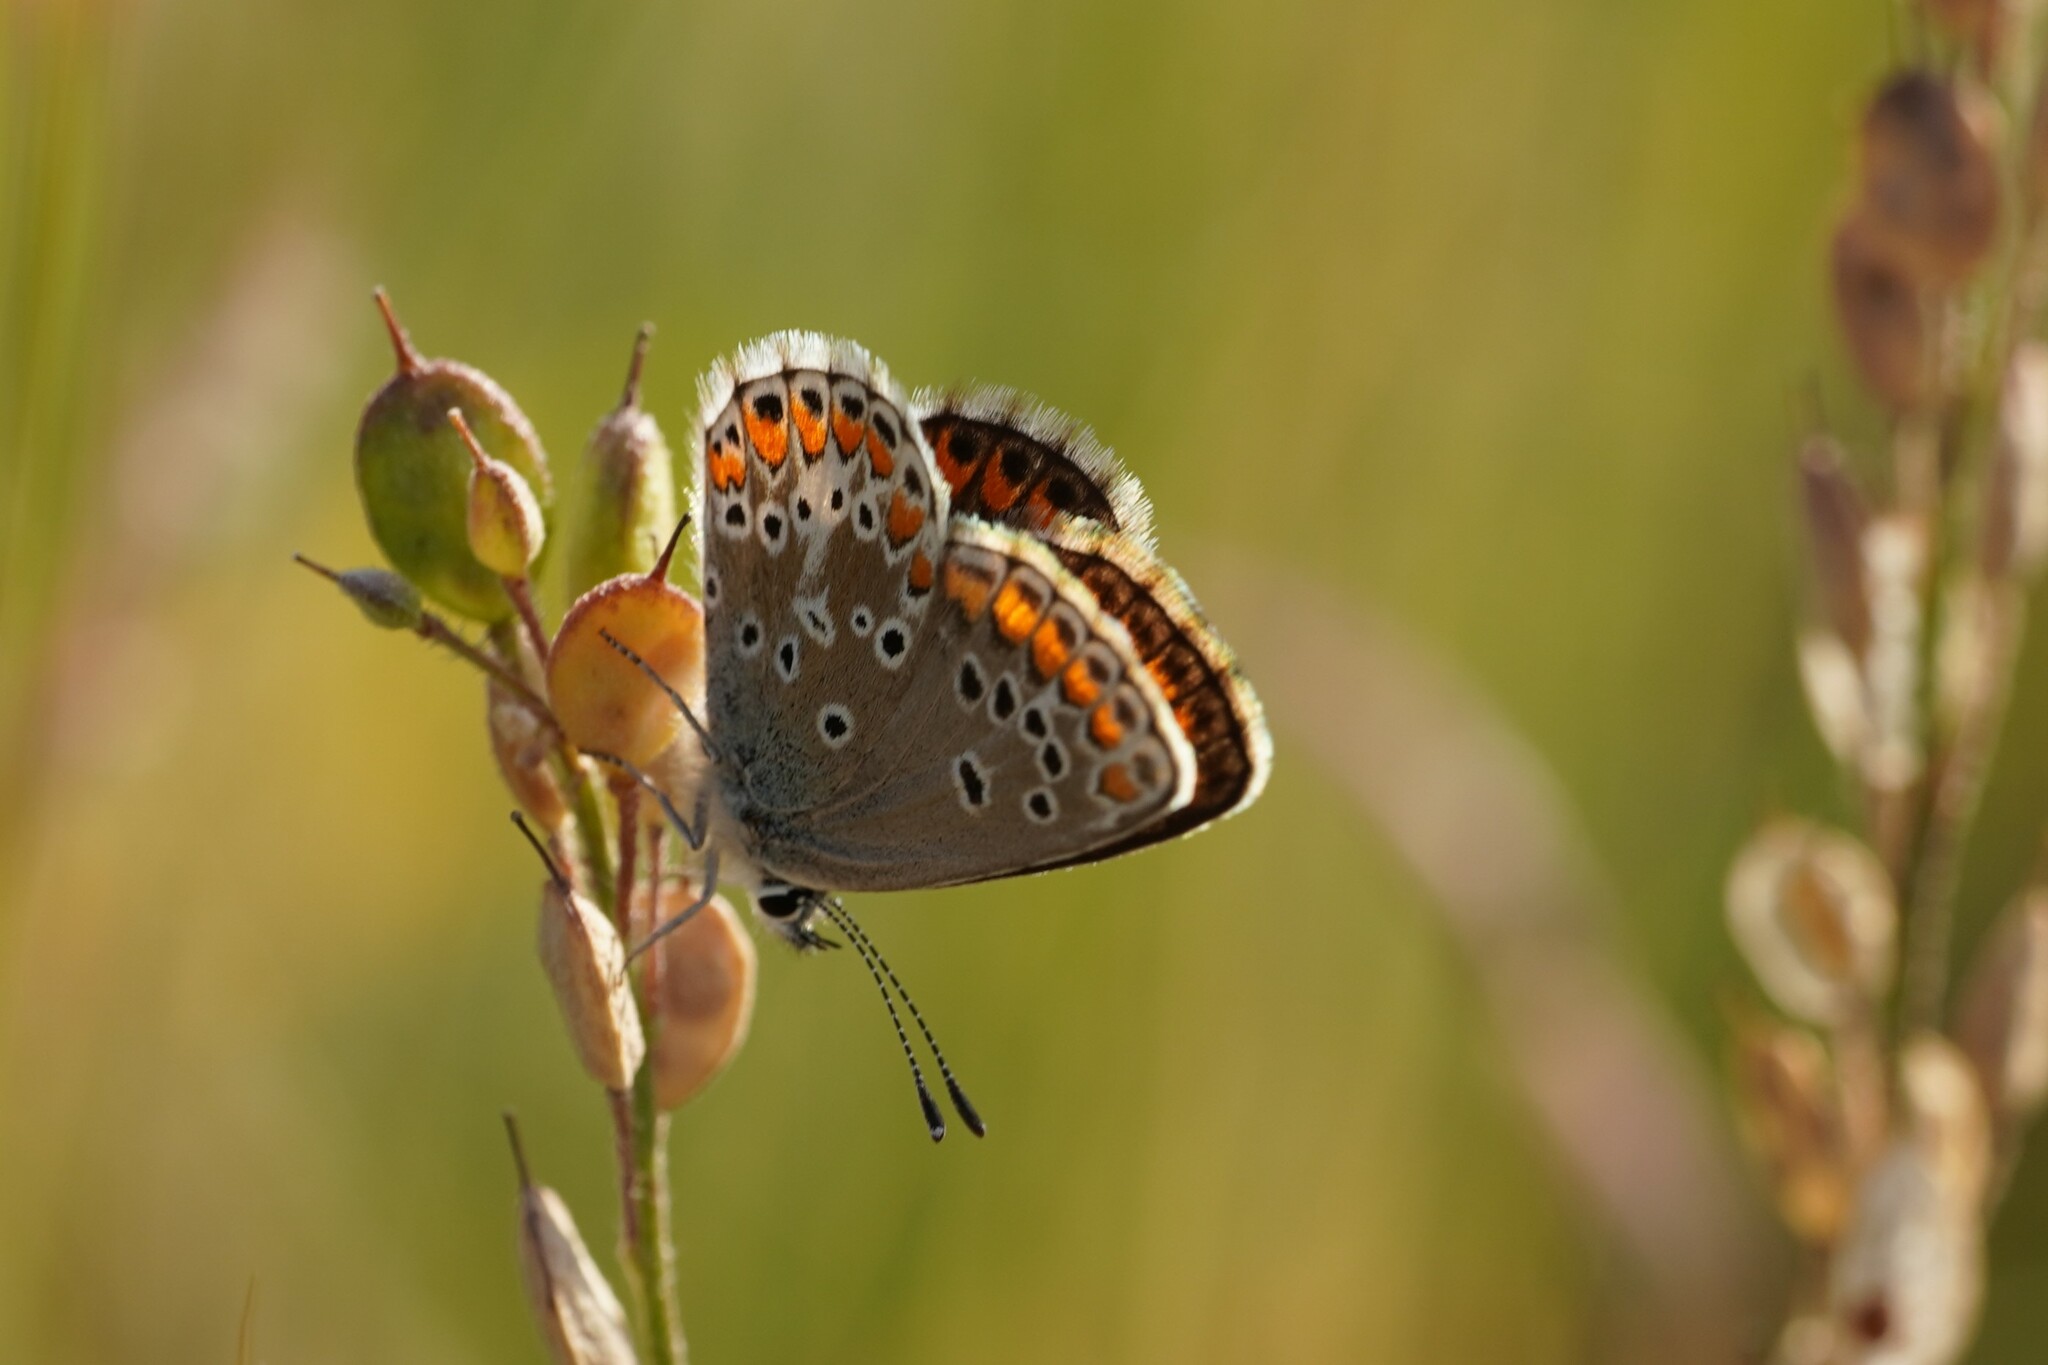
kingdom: Animalia
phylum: Arthropoda
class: Insecta
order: Lepidoptera
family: Lycaenidae
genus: Aricia
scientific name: Aricia agestis
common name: Brown argus
